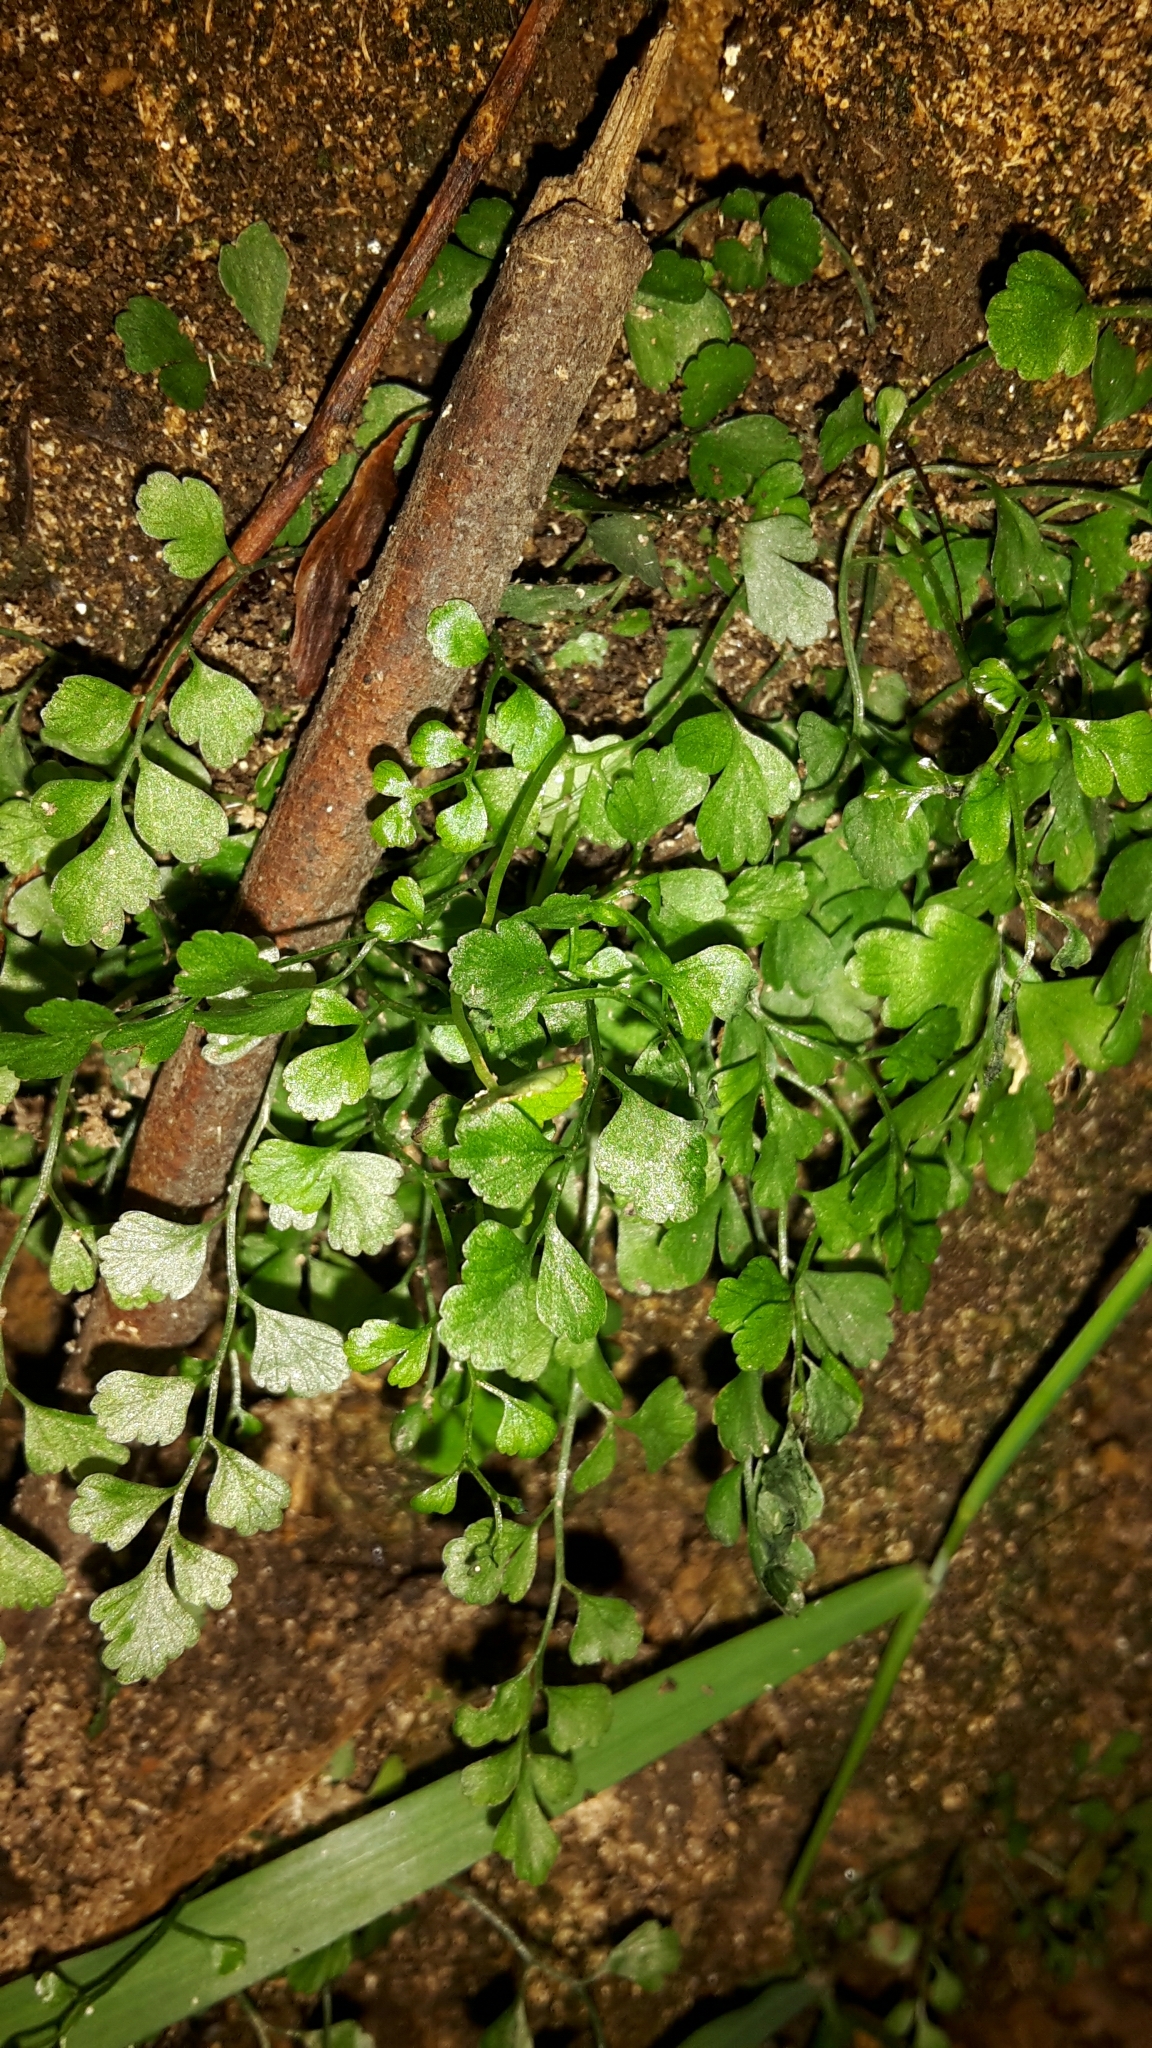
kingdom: Plantae
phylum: Tracheophyta
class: Polypodiopsida
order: Polypodiales
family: Aspleniaceae
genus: Asplenium
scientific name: Asplenium hookerianum
